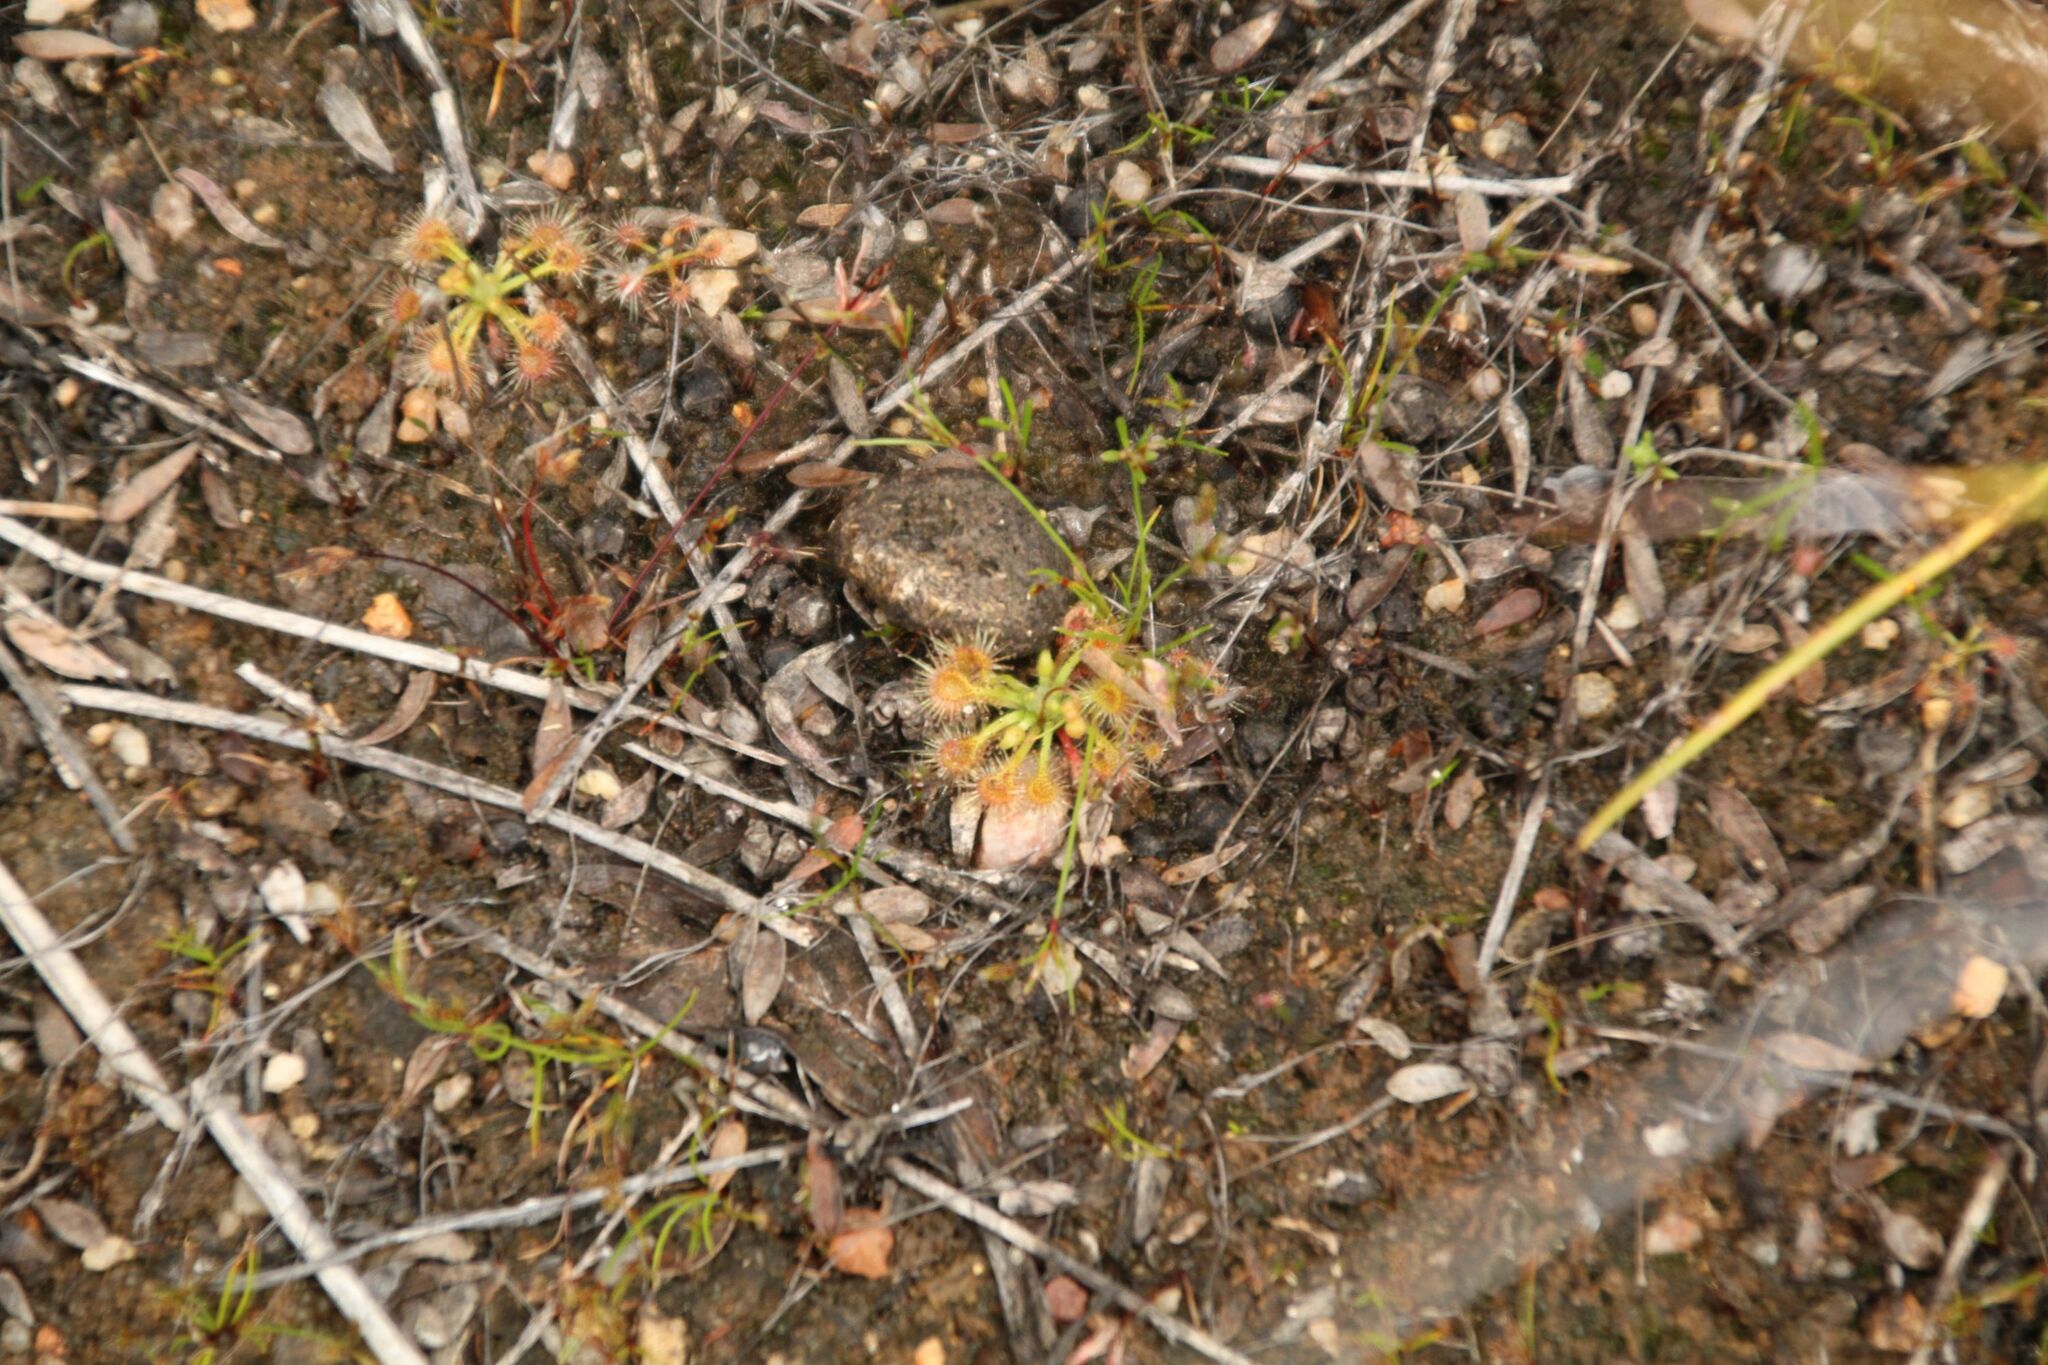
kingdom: Plantae
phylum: Tracheophyta
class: Magnoliopsida
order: Caryophyllales
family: Droseraceae
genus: Drosera
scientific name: Drosera nitidula
